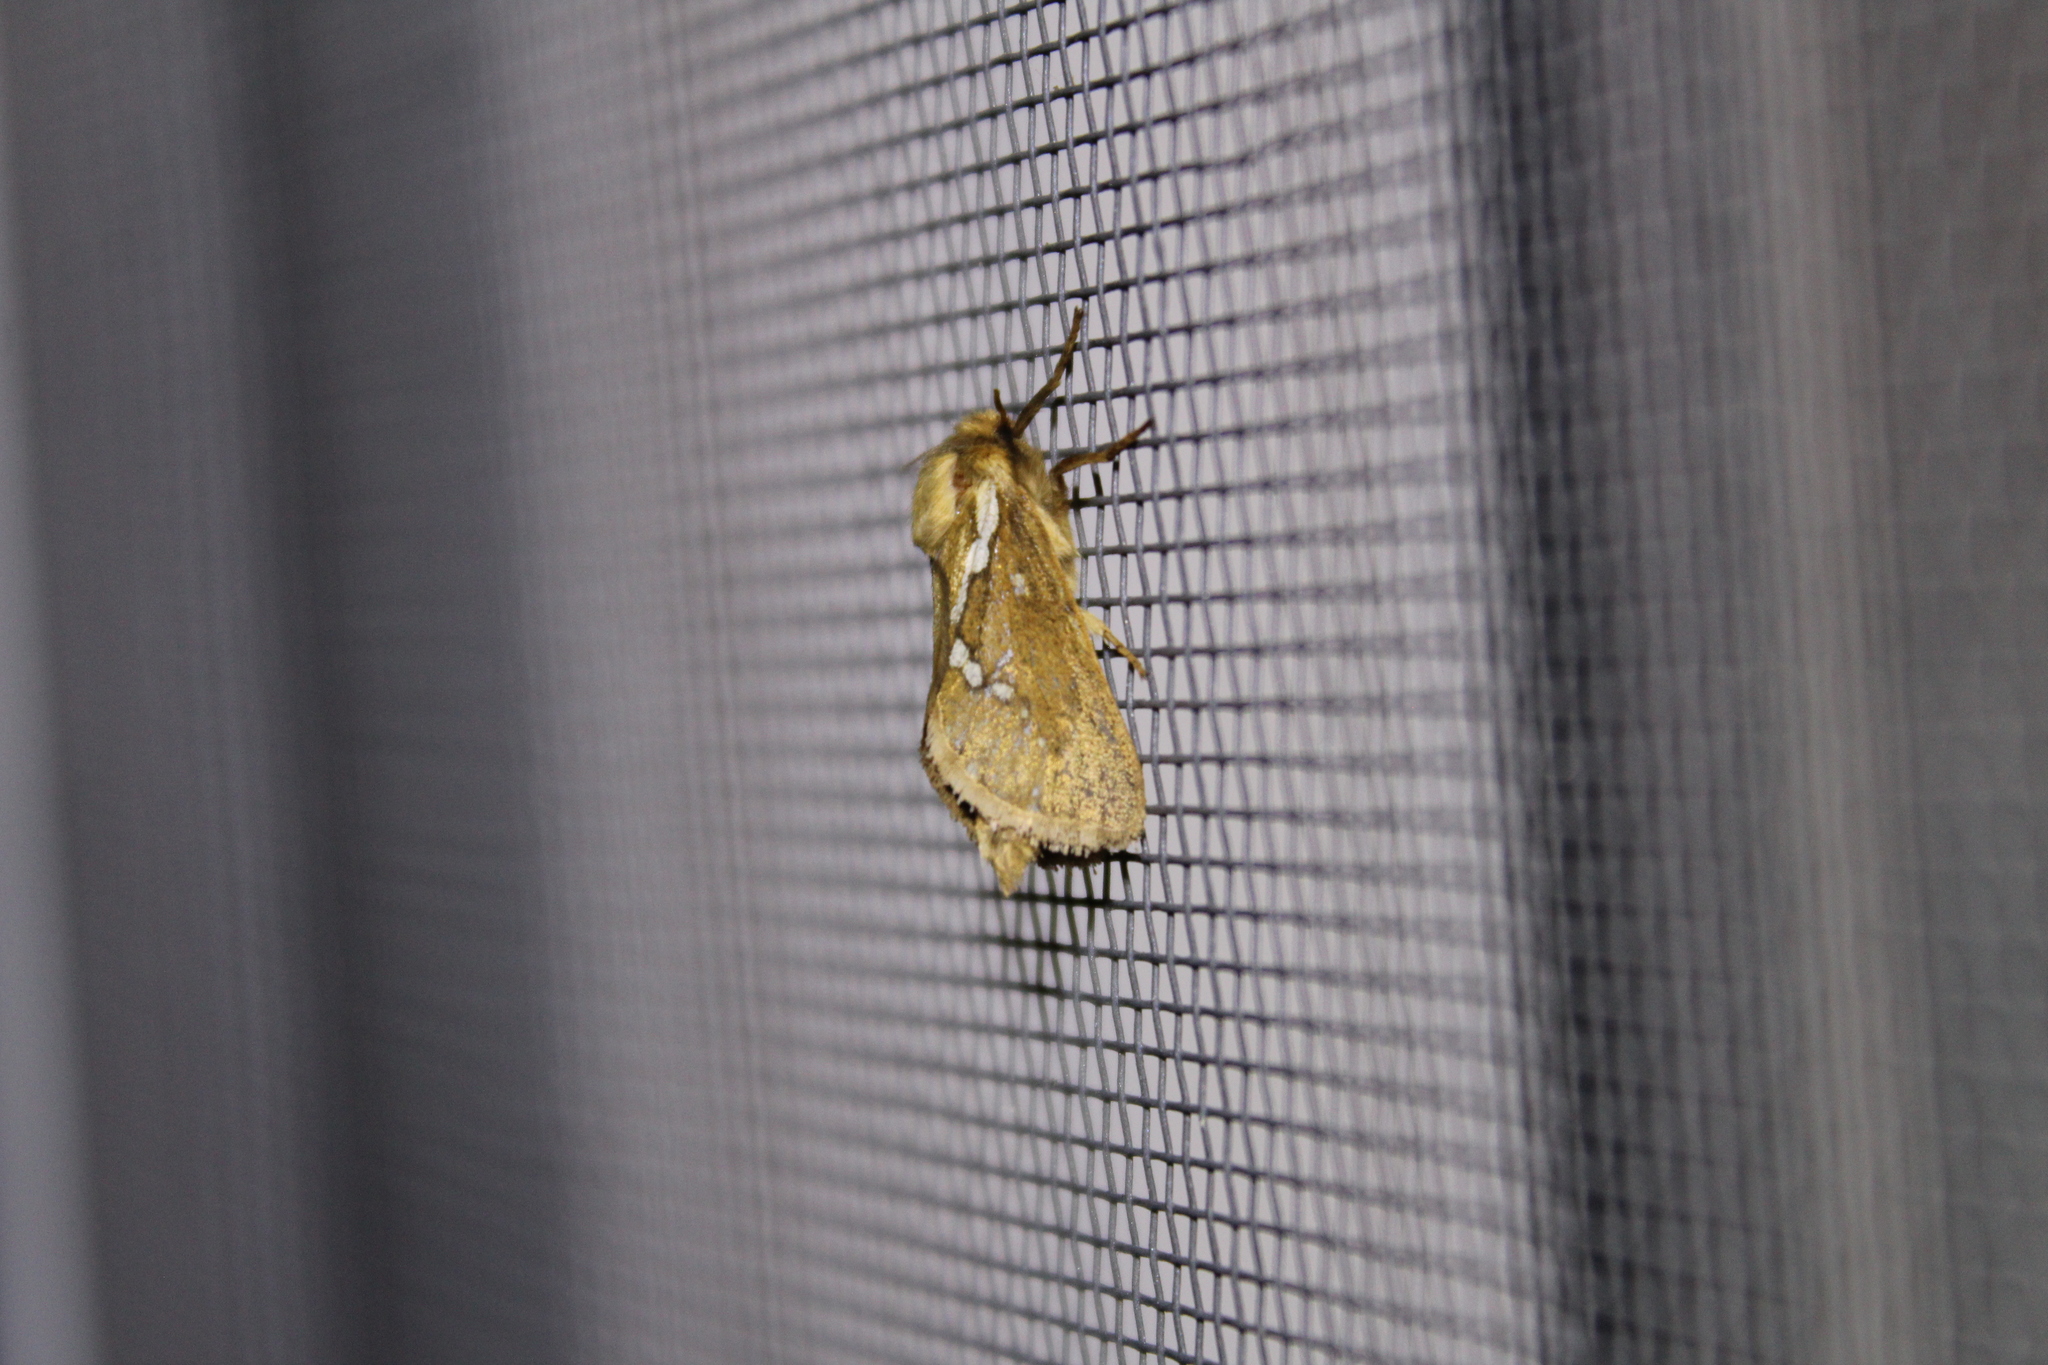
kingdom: Animalia
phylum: Arthropoda
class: Insecta
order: Lepidoptera
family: Hepialidae
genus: Korscheltellus
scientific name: Korscheltellus lupulina
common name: Common swift
